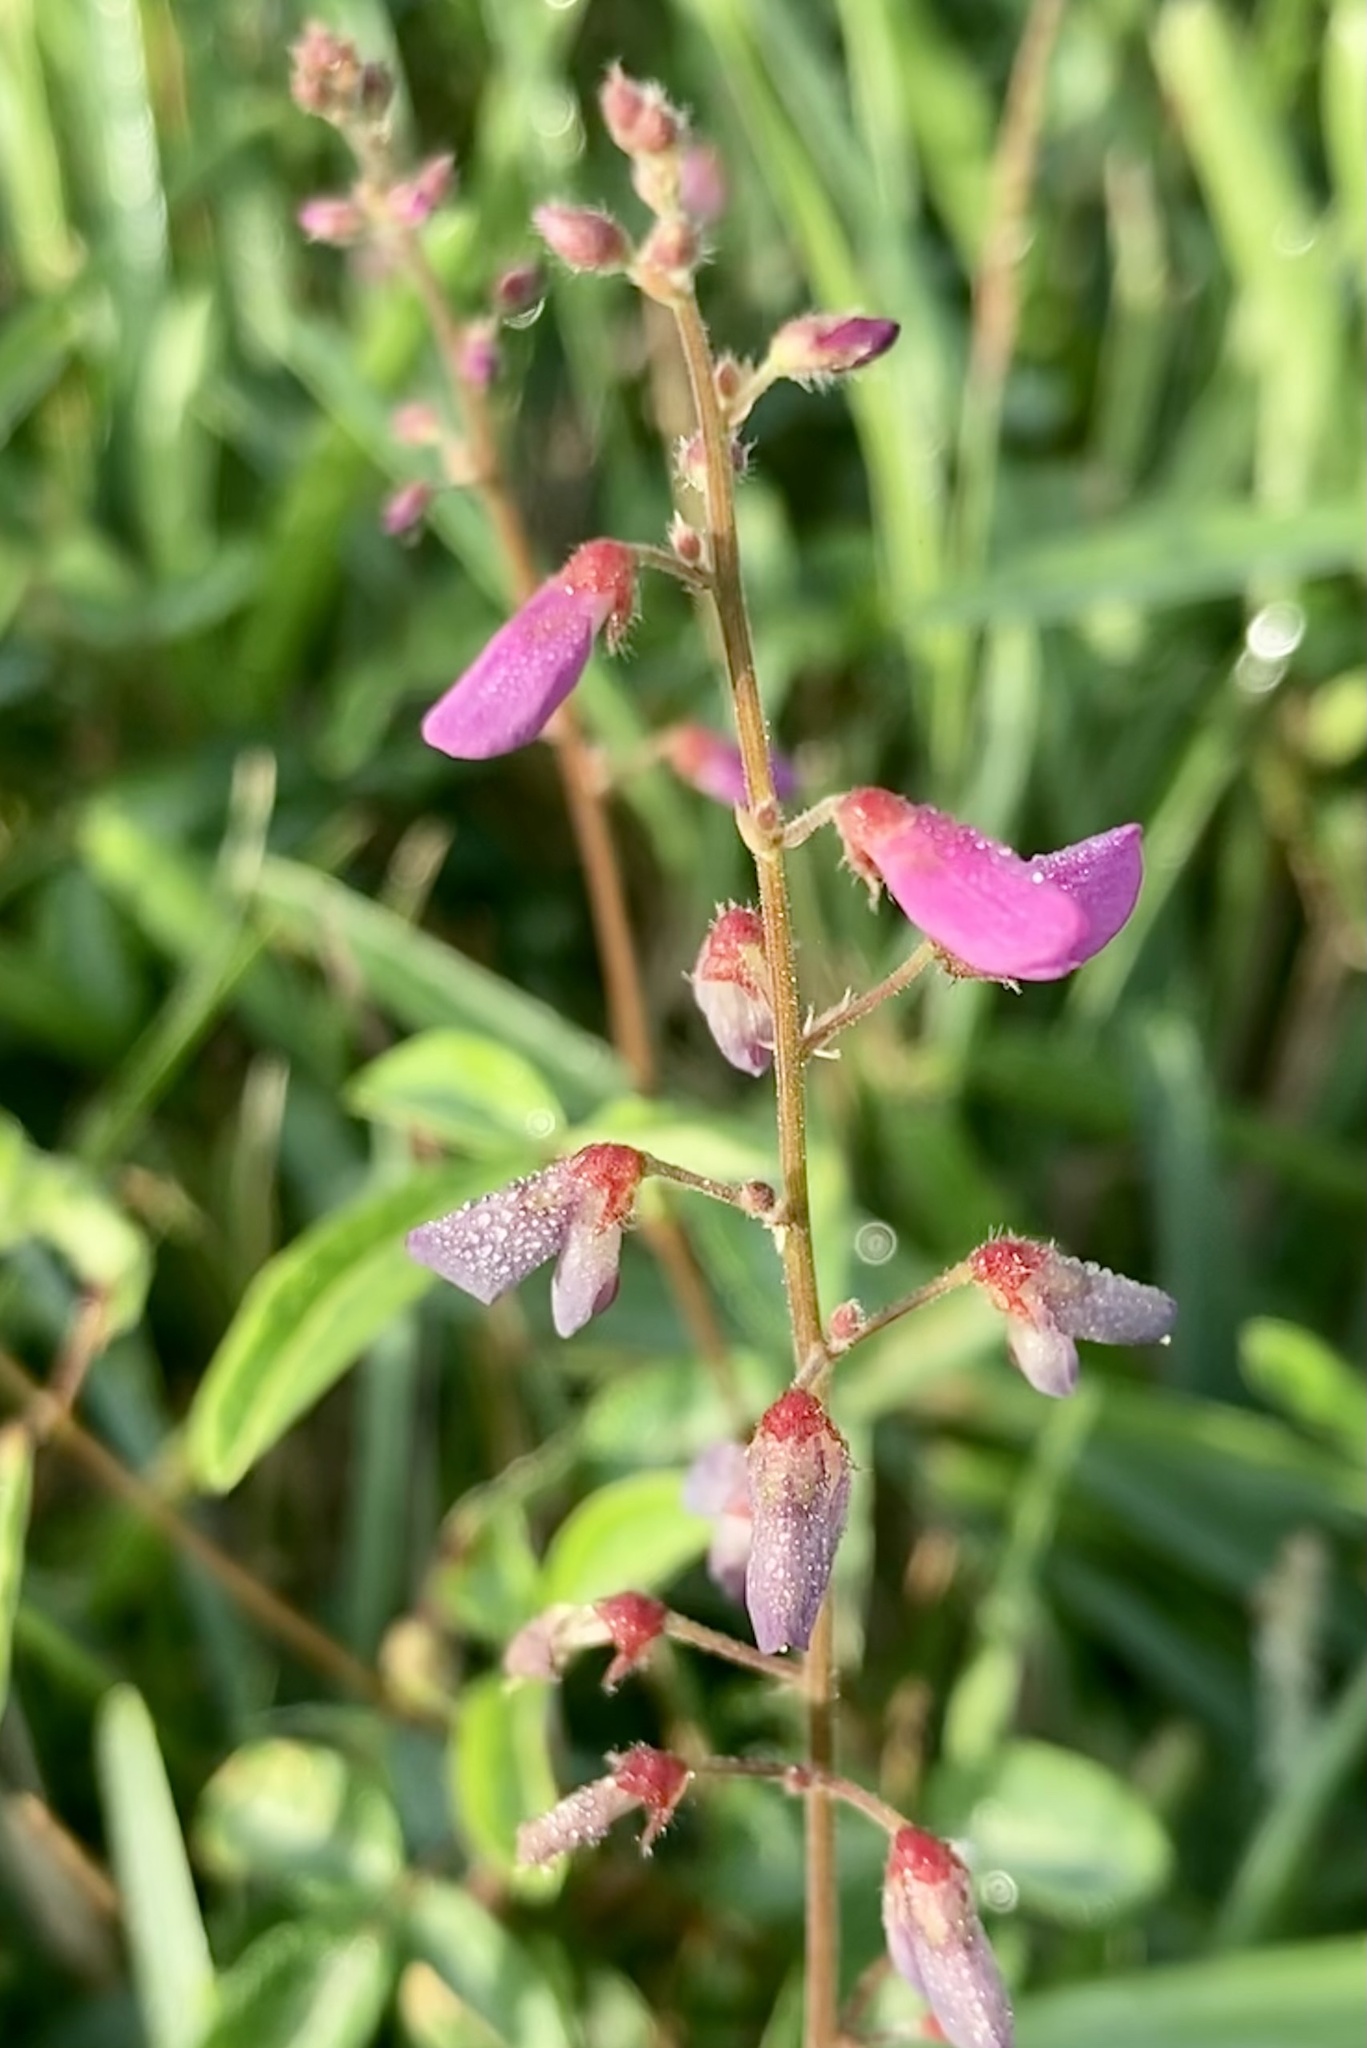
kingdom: Plantae
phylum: Tracheophyta
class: Magnoliopsida
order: Fabales
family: Fabaceae
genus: Desmodium
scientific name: Desmodium incanum
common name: Tickclover
